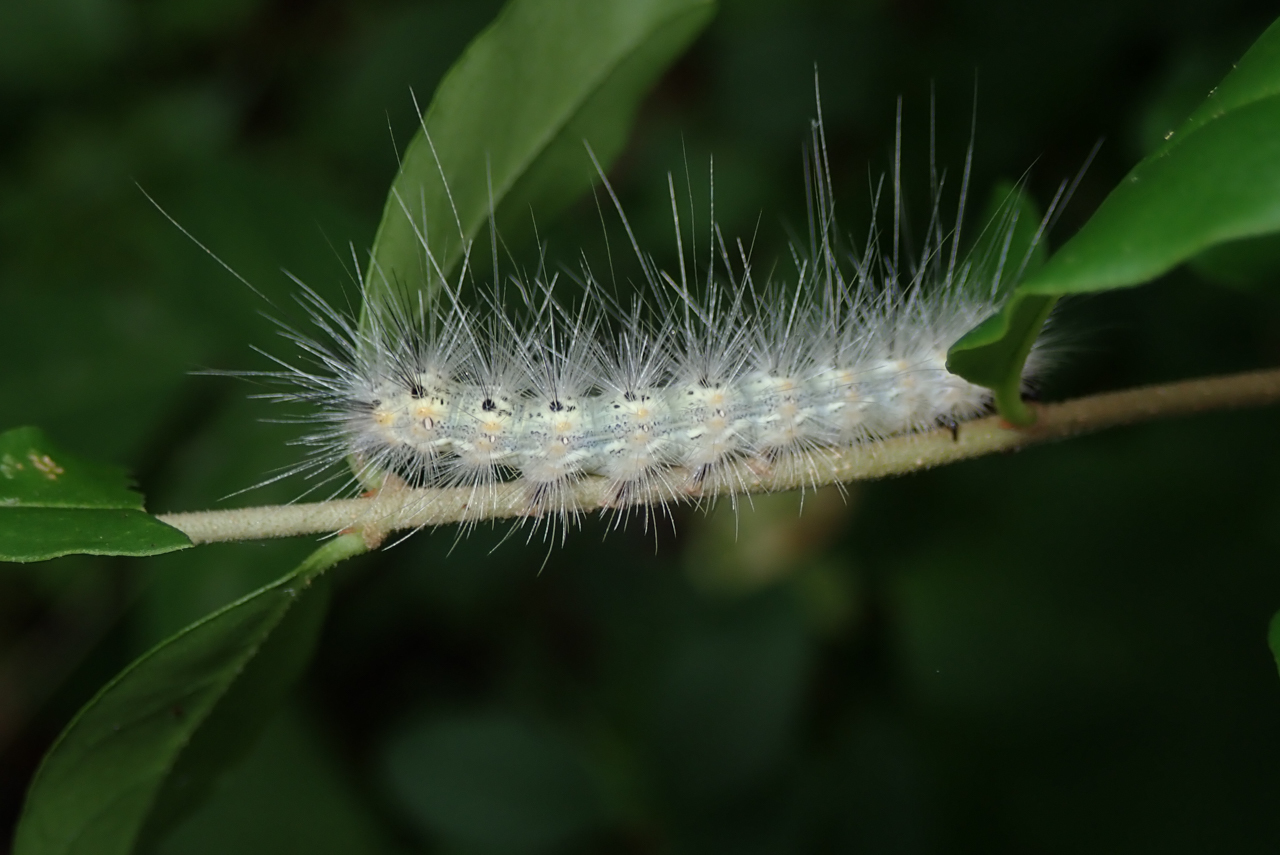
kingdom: Animalia
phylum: Arthropoda
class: Insecta
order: Lepidoptera
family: Erebidae
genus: Hyphantria
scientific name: Hyphantria cunea
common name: American white moth
